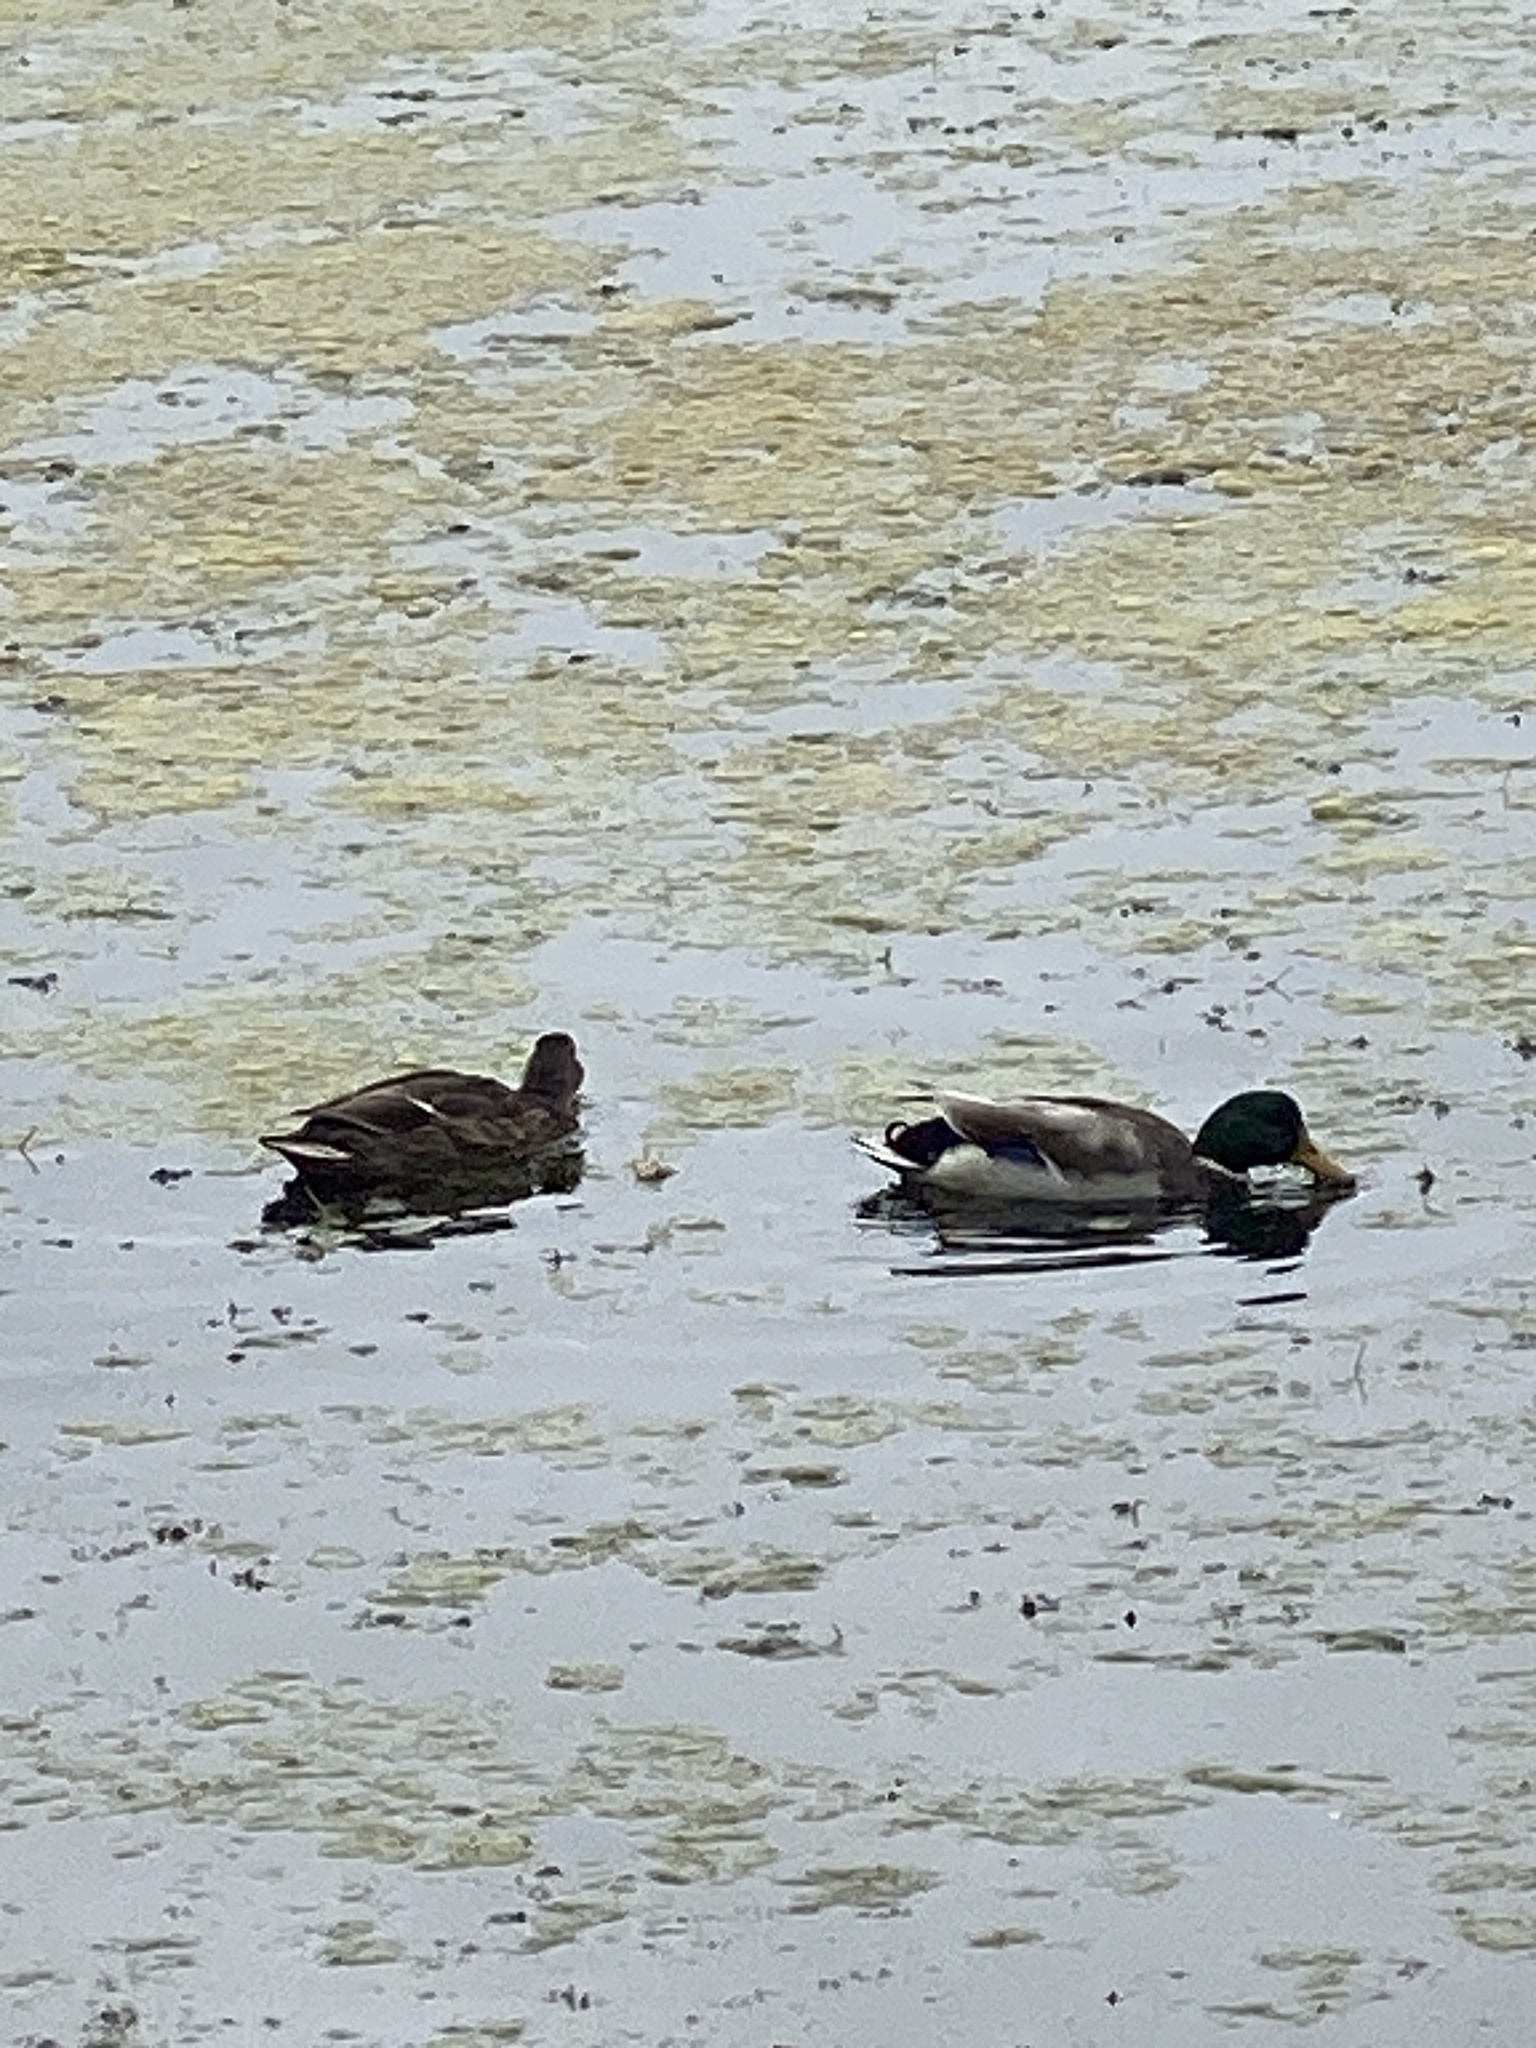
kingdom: Animalia
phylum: Chordata
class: Aves
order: Anseriformes
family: Anatidae
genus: Anas
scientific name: Anas platyrhynchos
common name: Mallard
